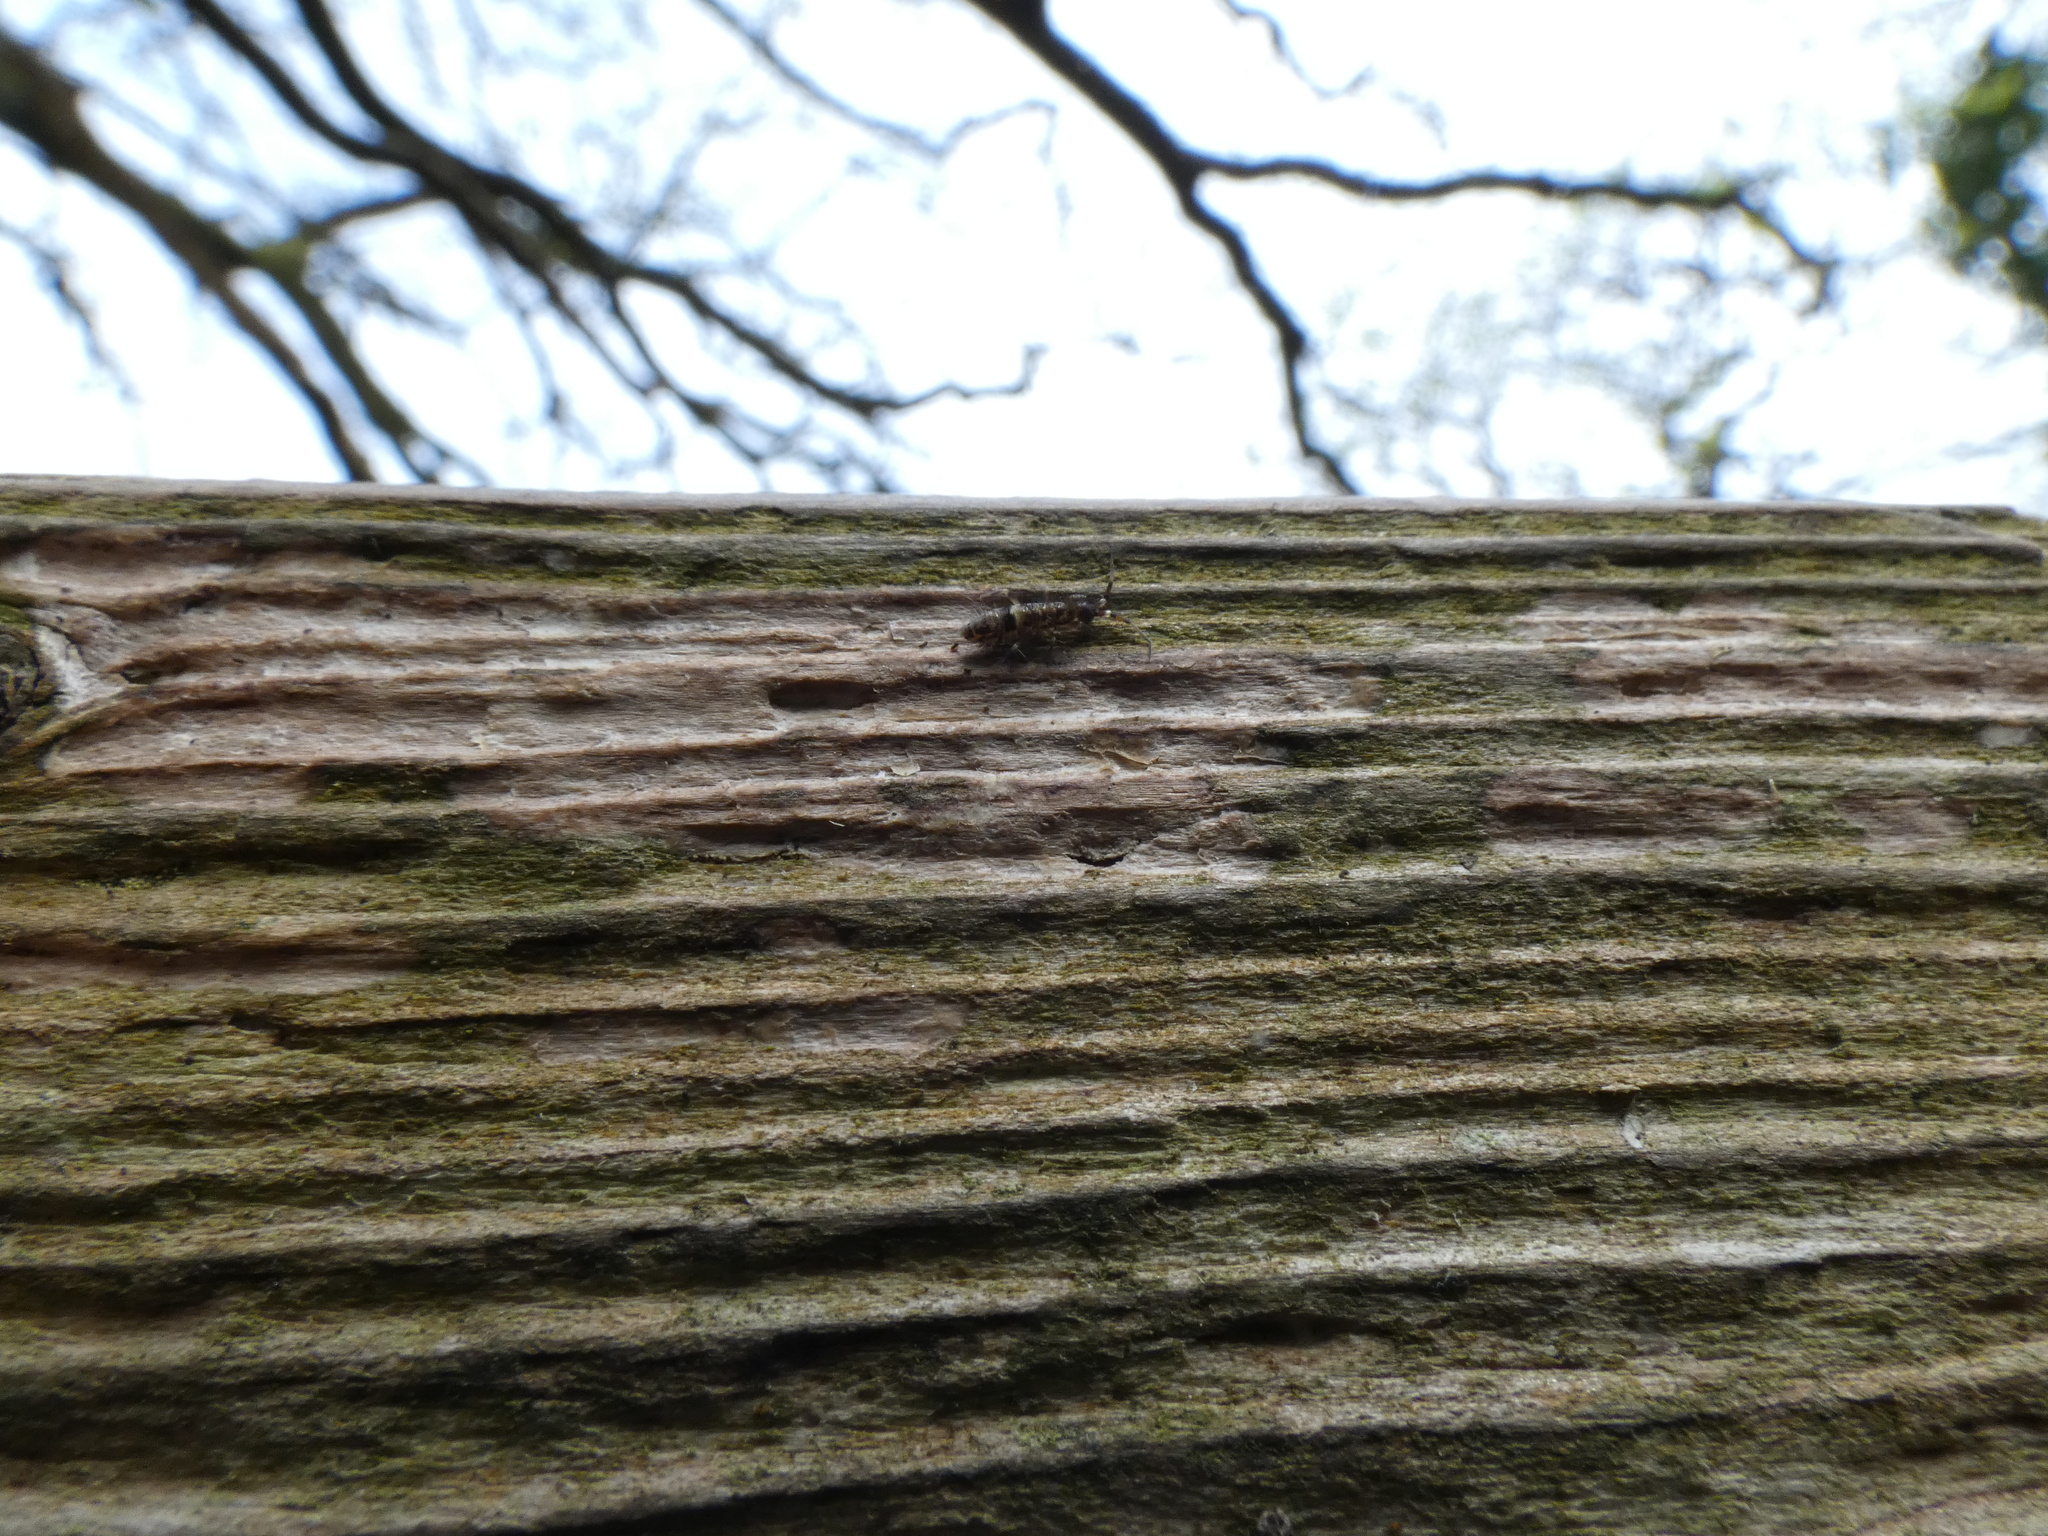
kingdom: Animalia
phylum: Arthropoda
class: Collembola
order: Entomobryomorpha
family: Orchesellidae
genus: Orchesella
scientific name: Orchesella cincta
